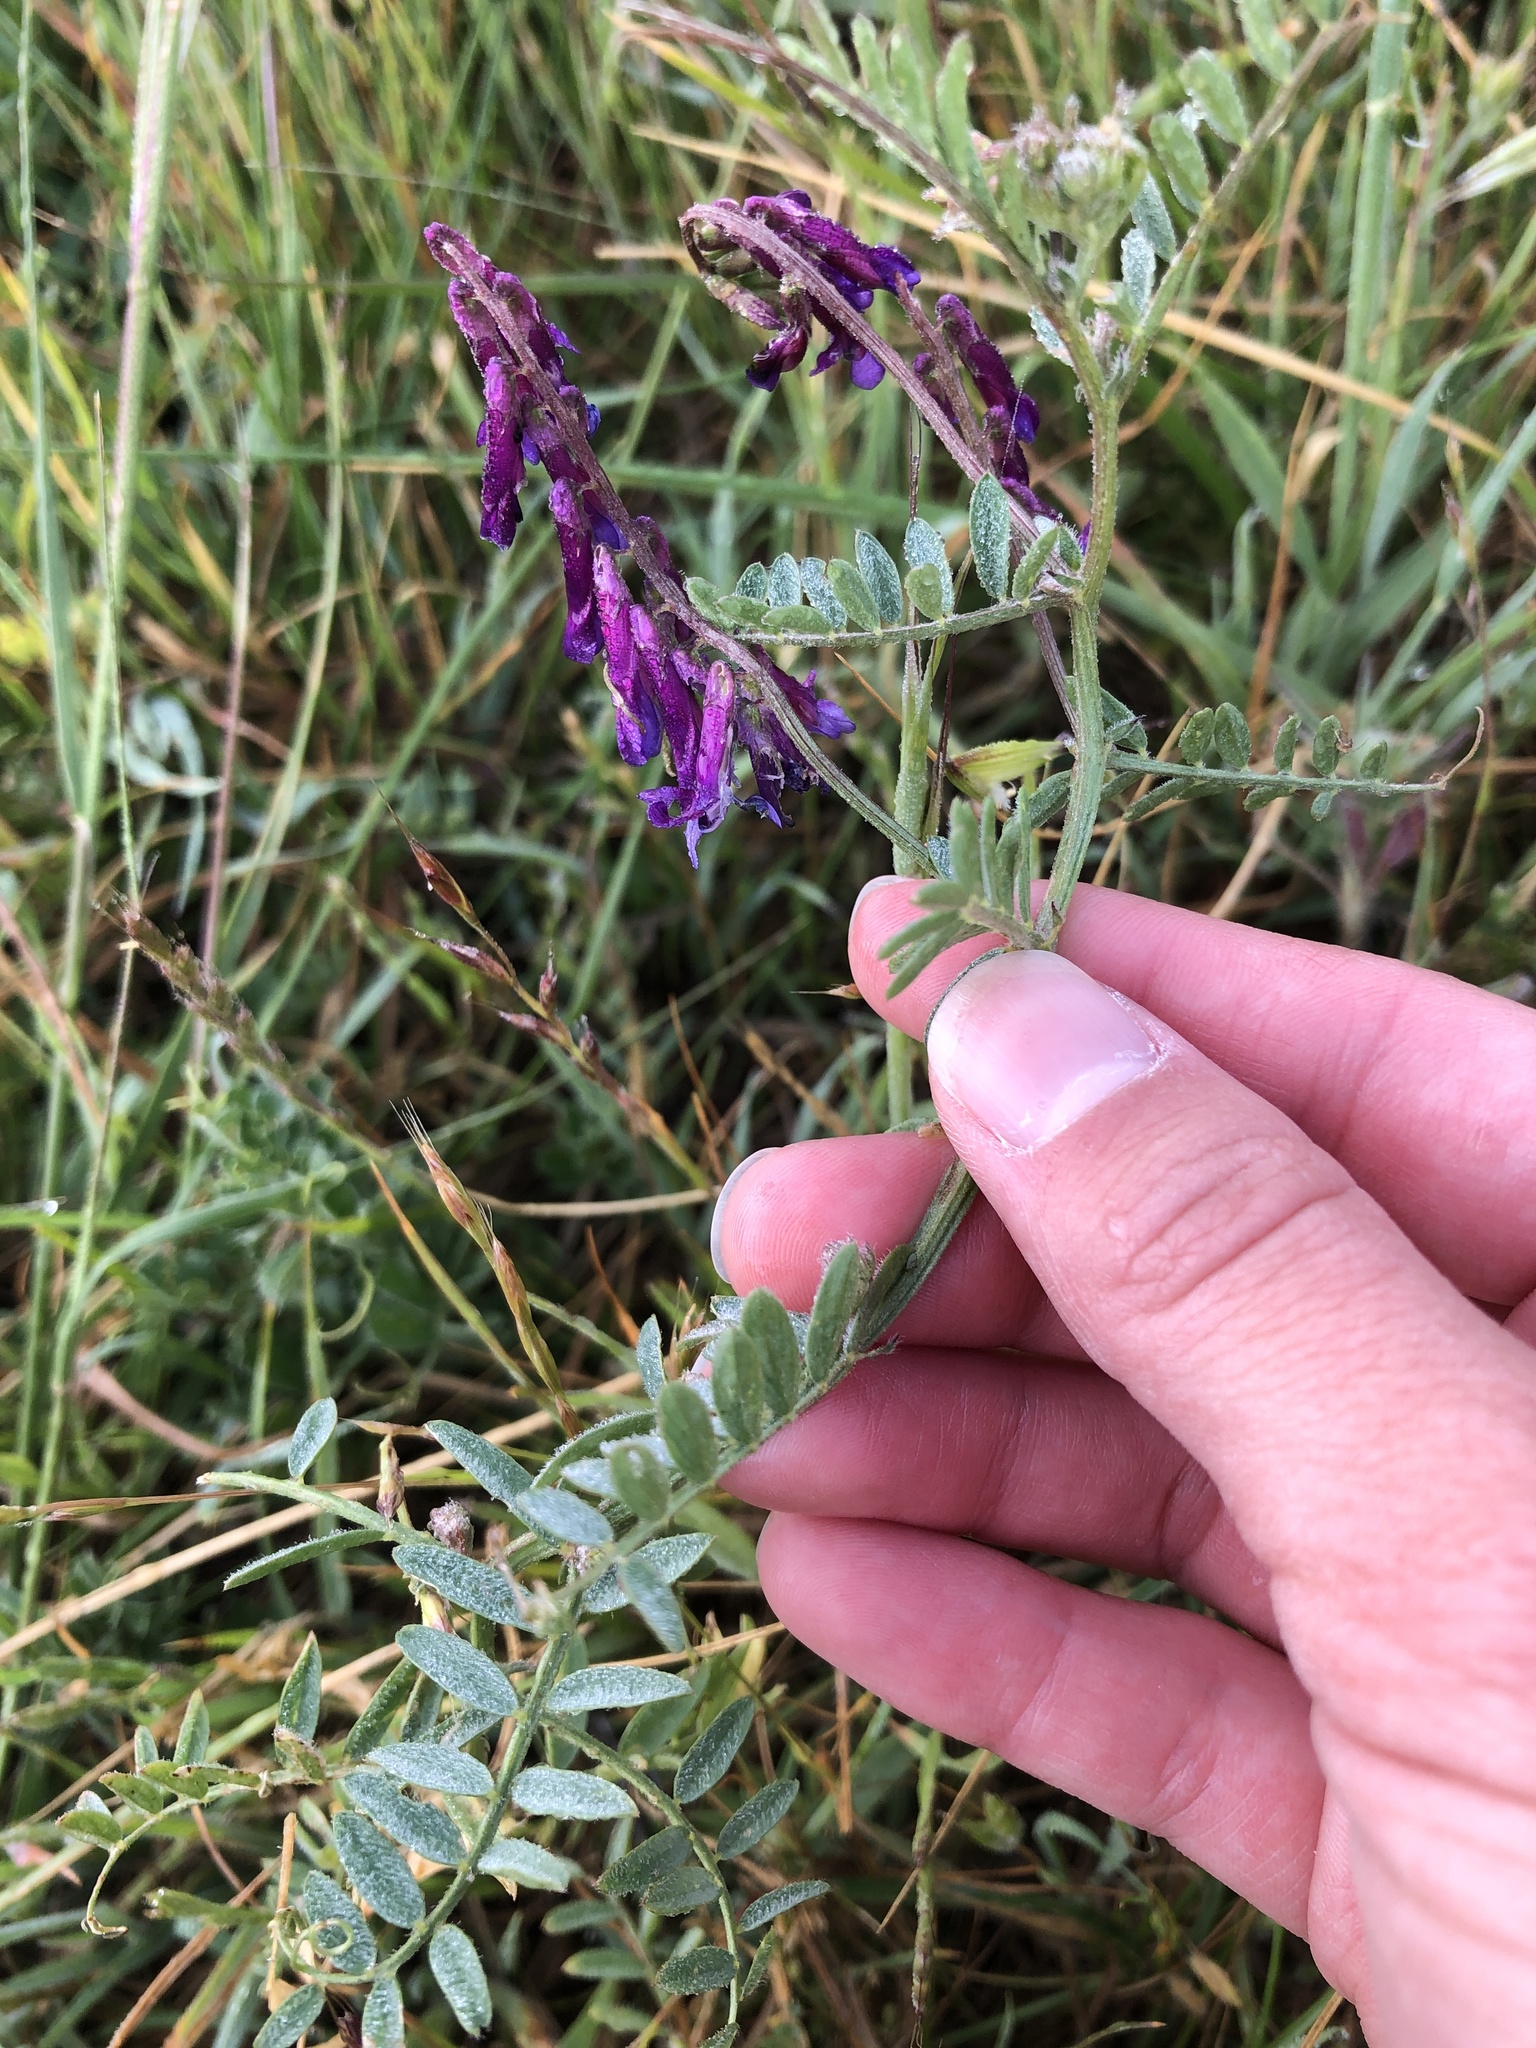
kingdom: Plantae
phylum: Tracheophyta
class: Magnoliopsida
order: Fabales
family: Fabaceae
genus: Vicia
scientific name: Vicia villosa
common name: Fodder vetch
